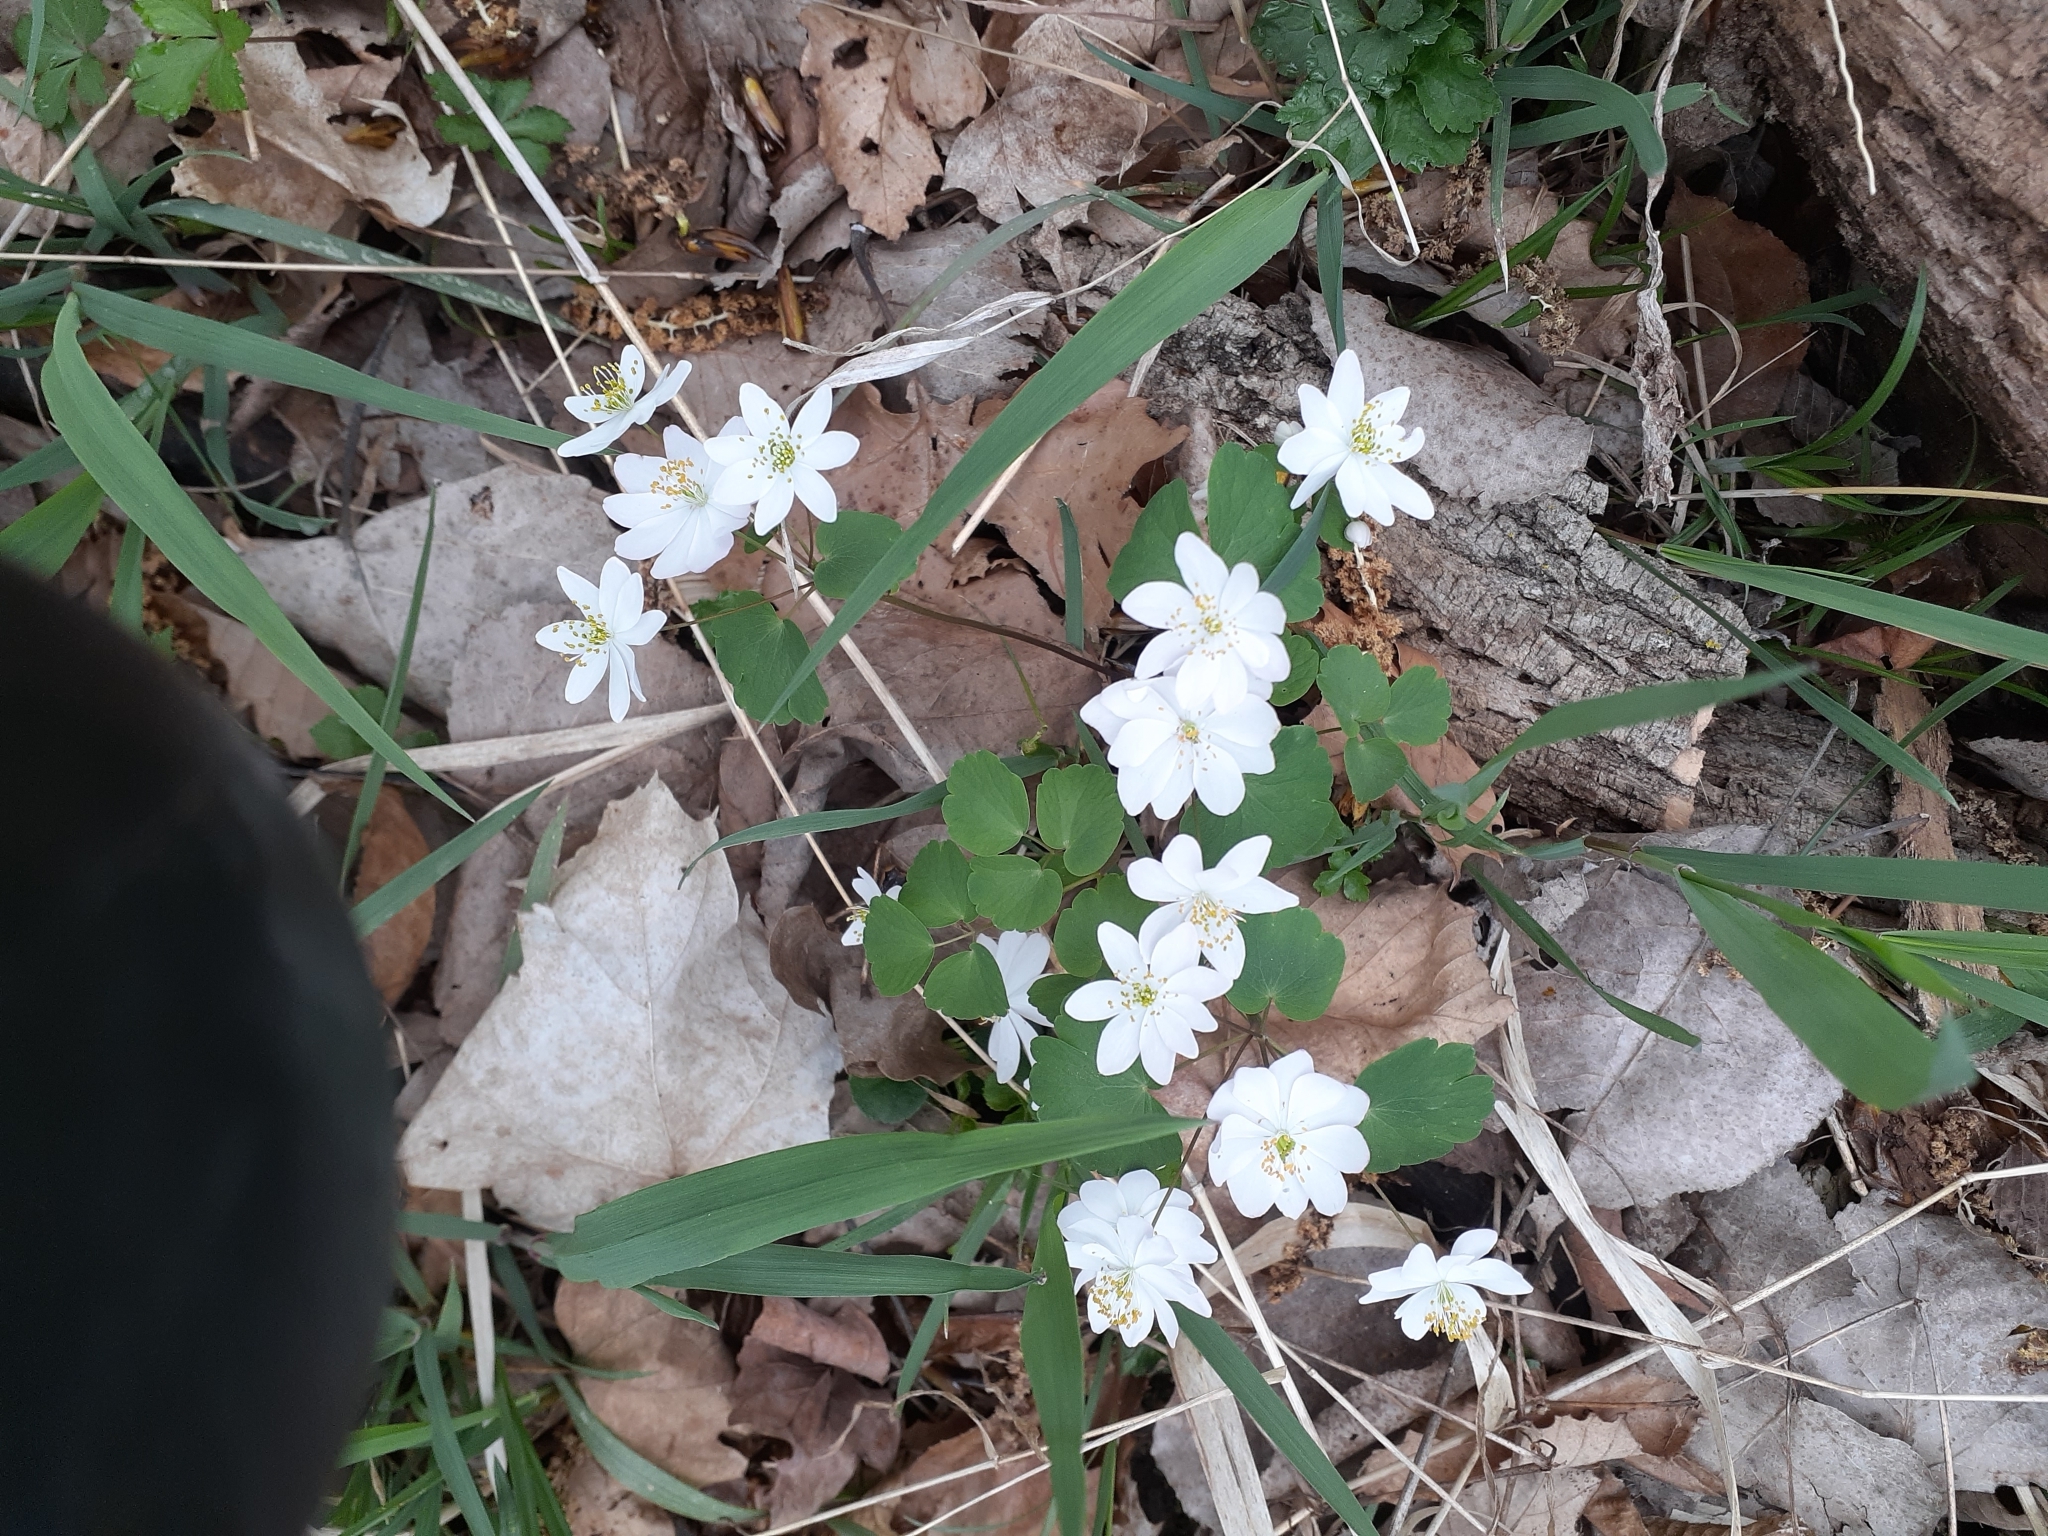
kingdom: Plantae
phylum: Tracheophyta
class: Magnoliopsida
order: Ranunculales
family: Ranunculaceae
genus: Thalictrum
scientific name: Thalictrum thalictroides
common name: Rue-anemone
